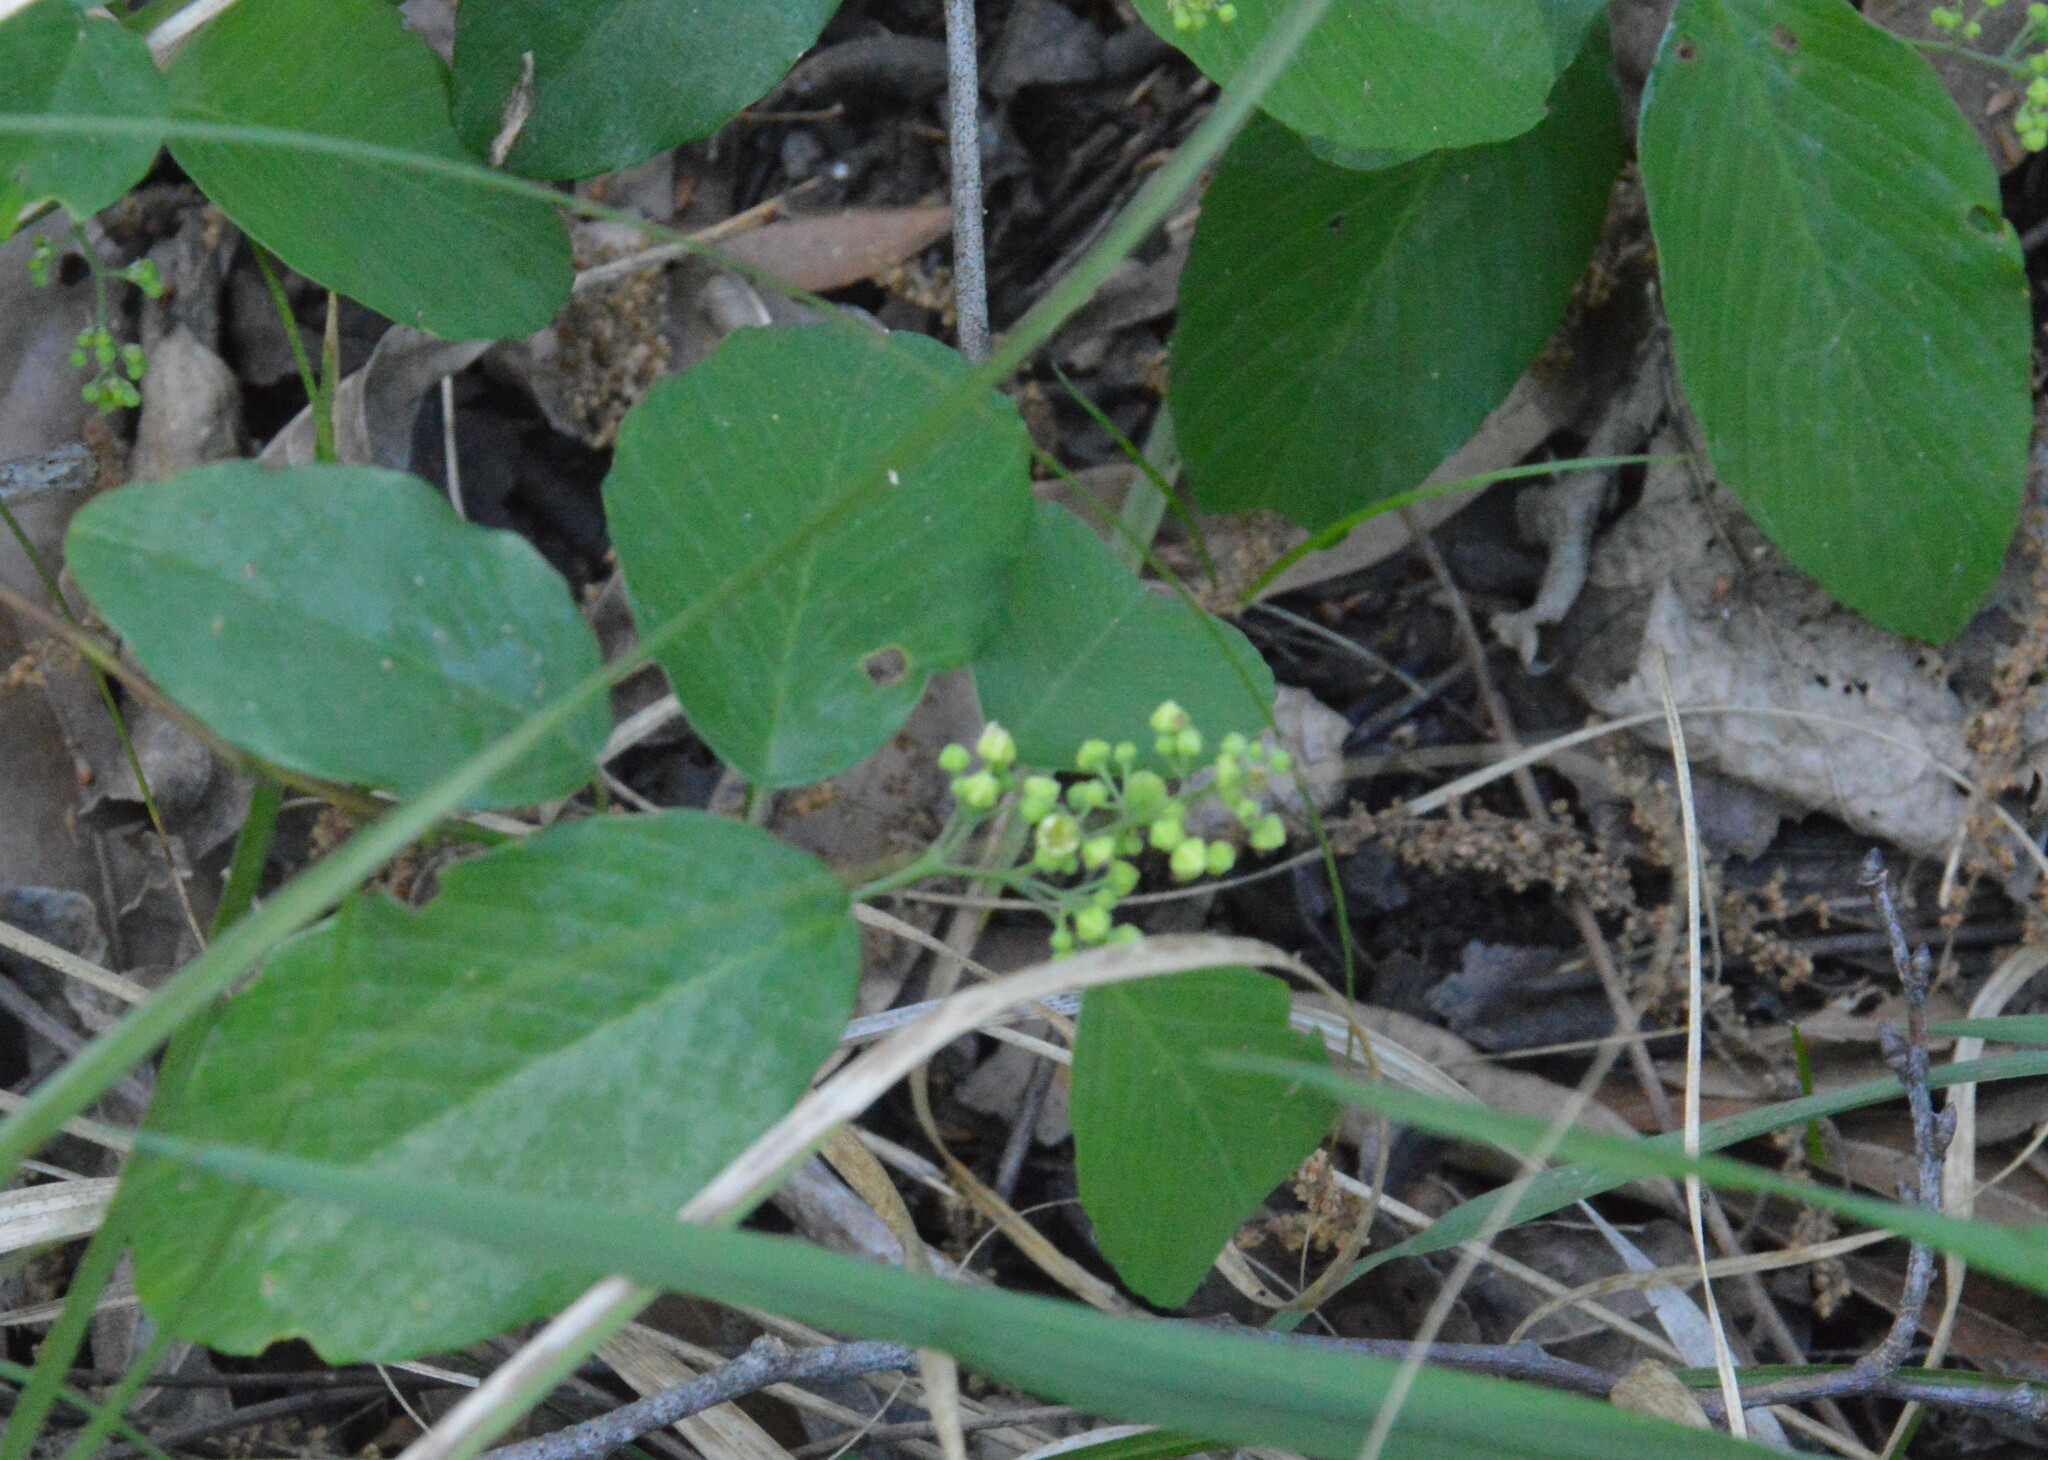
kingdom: Plantae
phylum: Tracheophyta
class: Magnoliopsida
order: Rosales
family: Rhamnaceae
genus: Berchemia
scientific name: Berchemia scandens
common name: Supplejack
